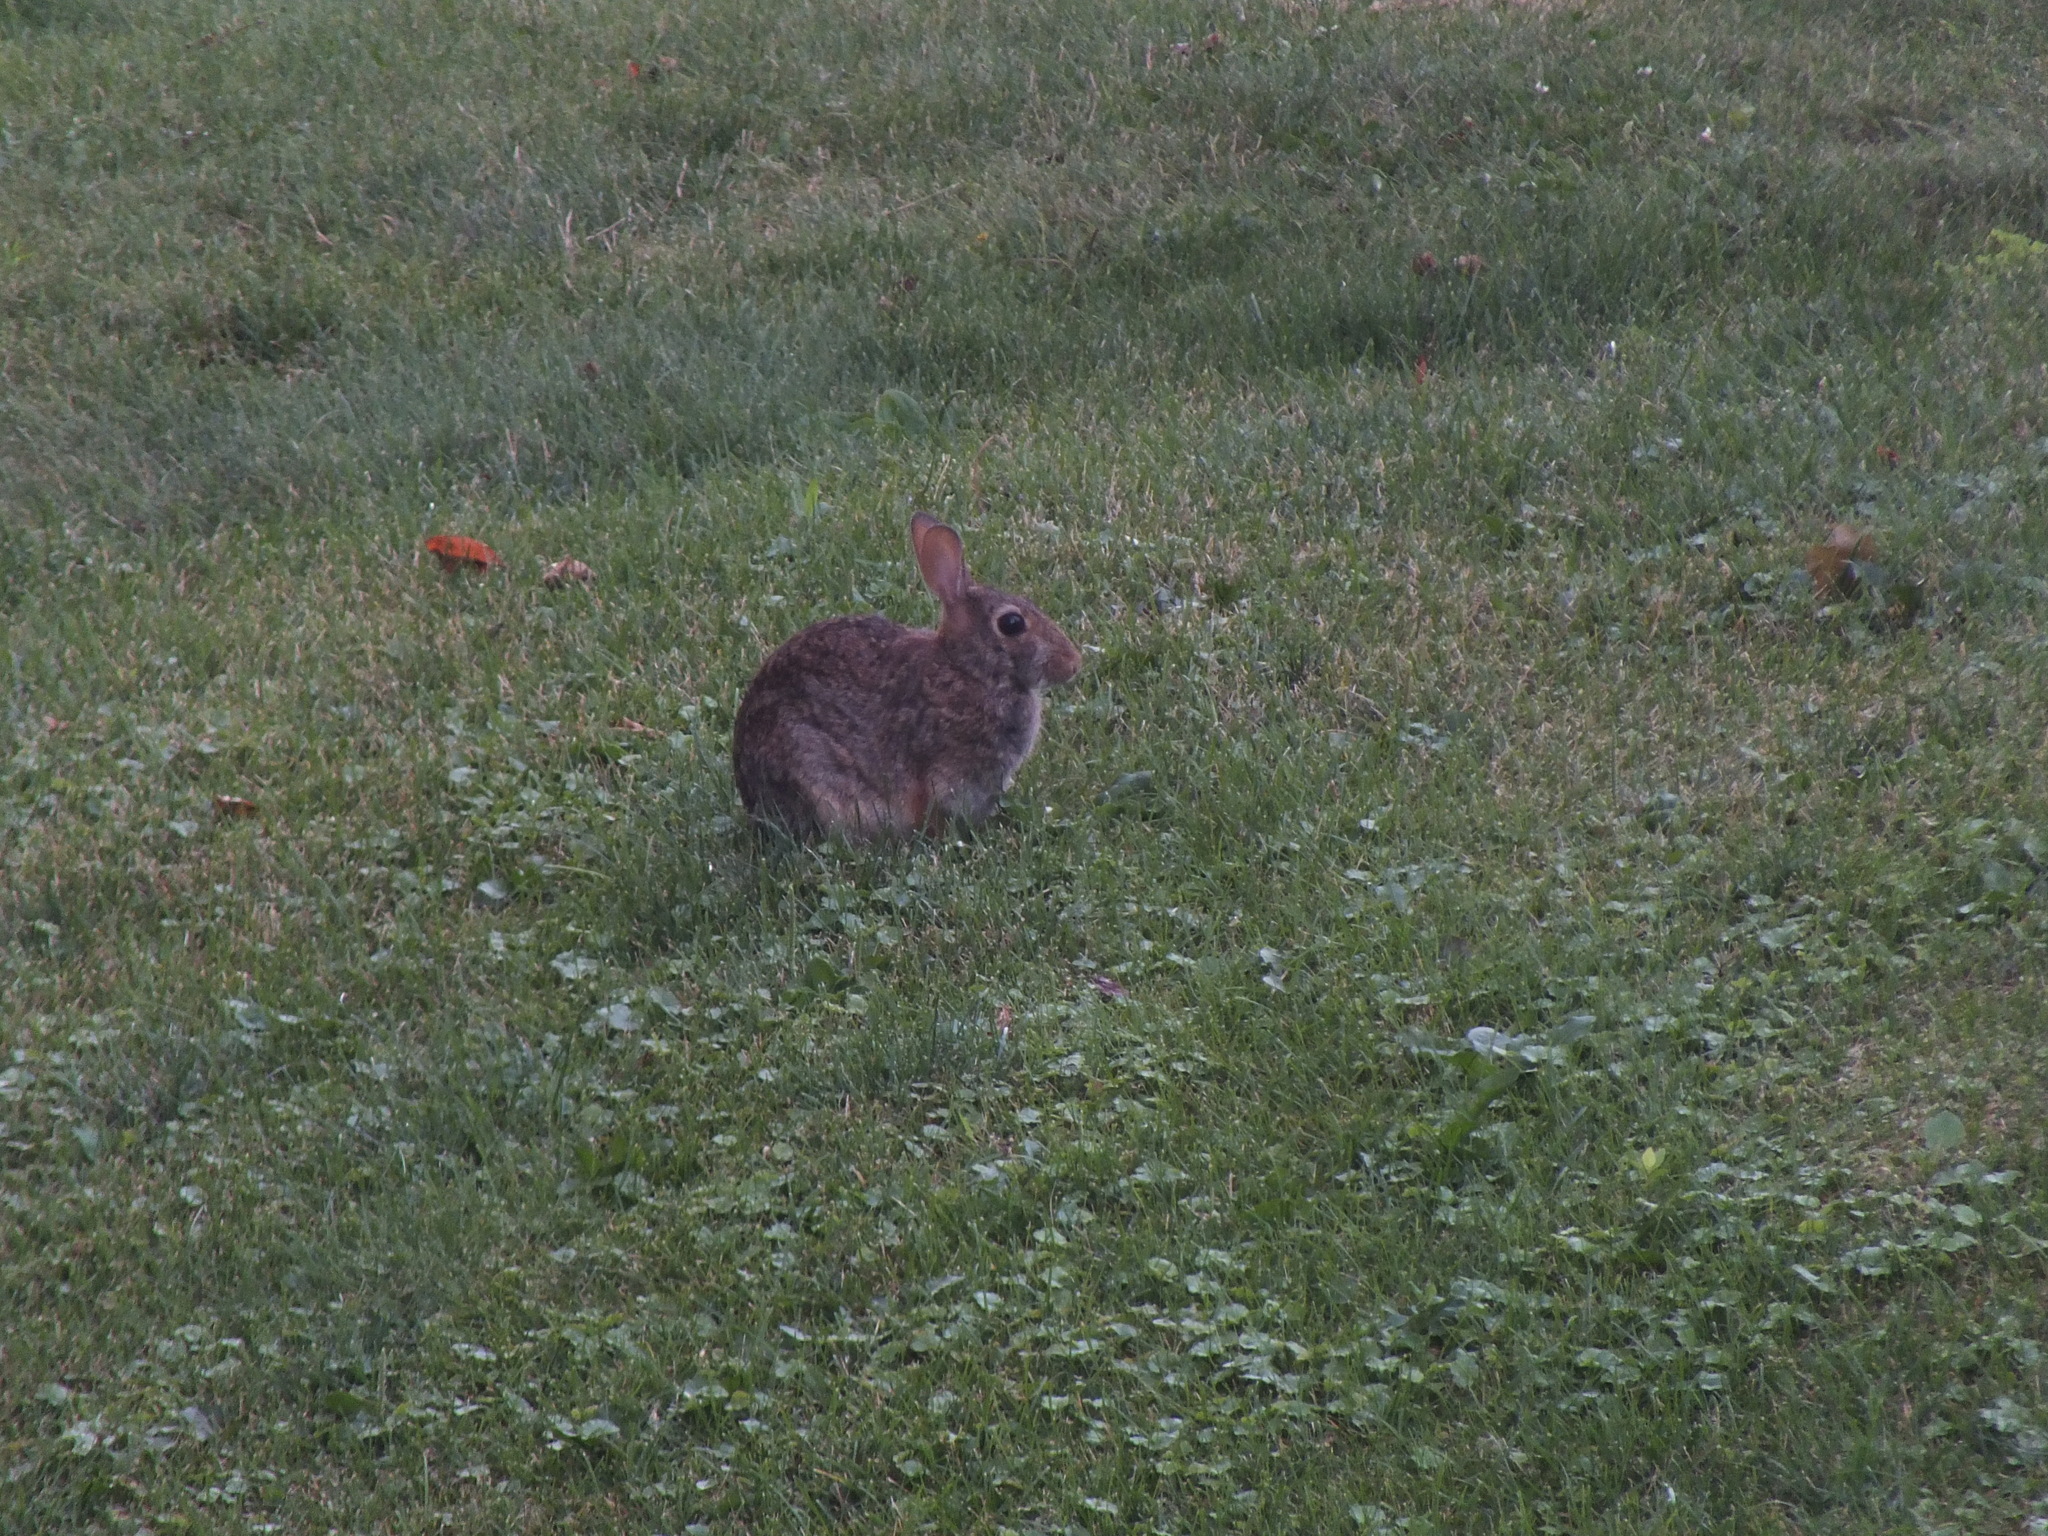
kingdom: Animalia
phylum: Chordata
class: Mammalia
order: Lagomorpha
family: Leporidae
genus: Sylvilagus
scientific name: Sylvilagus floridanus
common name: Eastern cottontail
